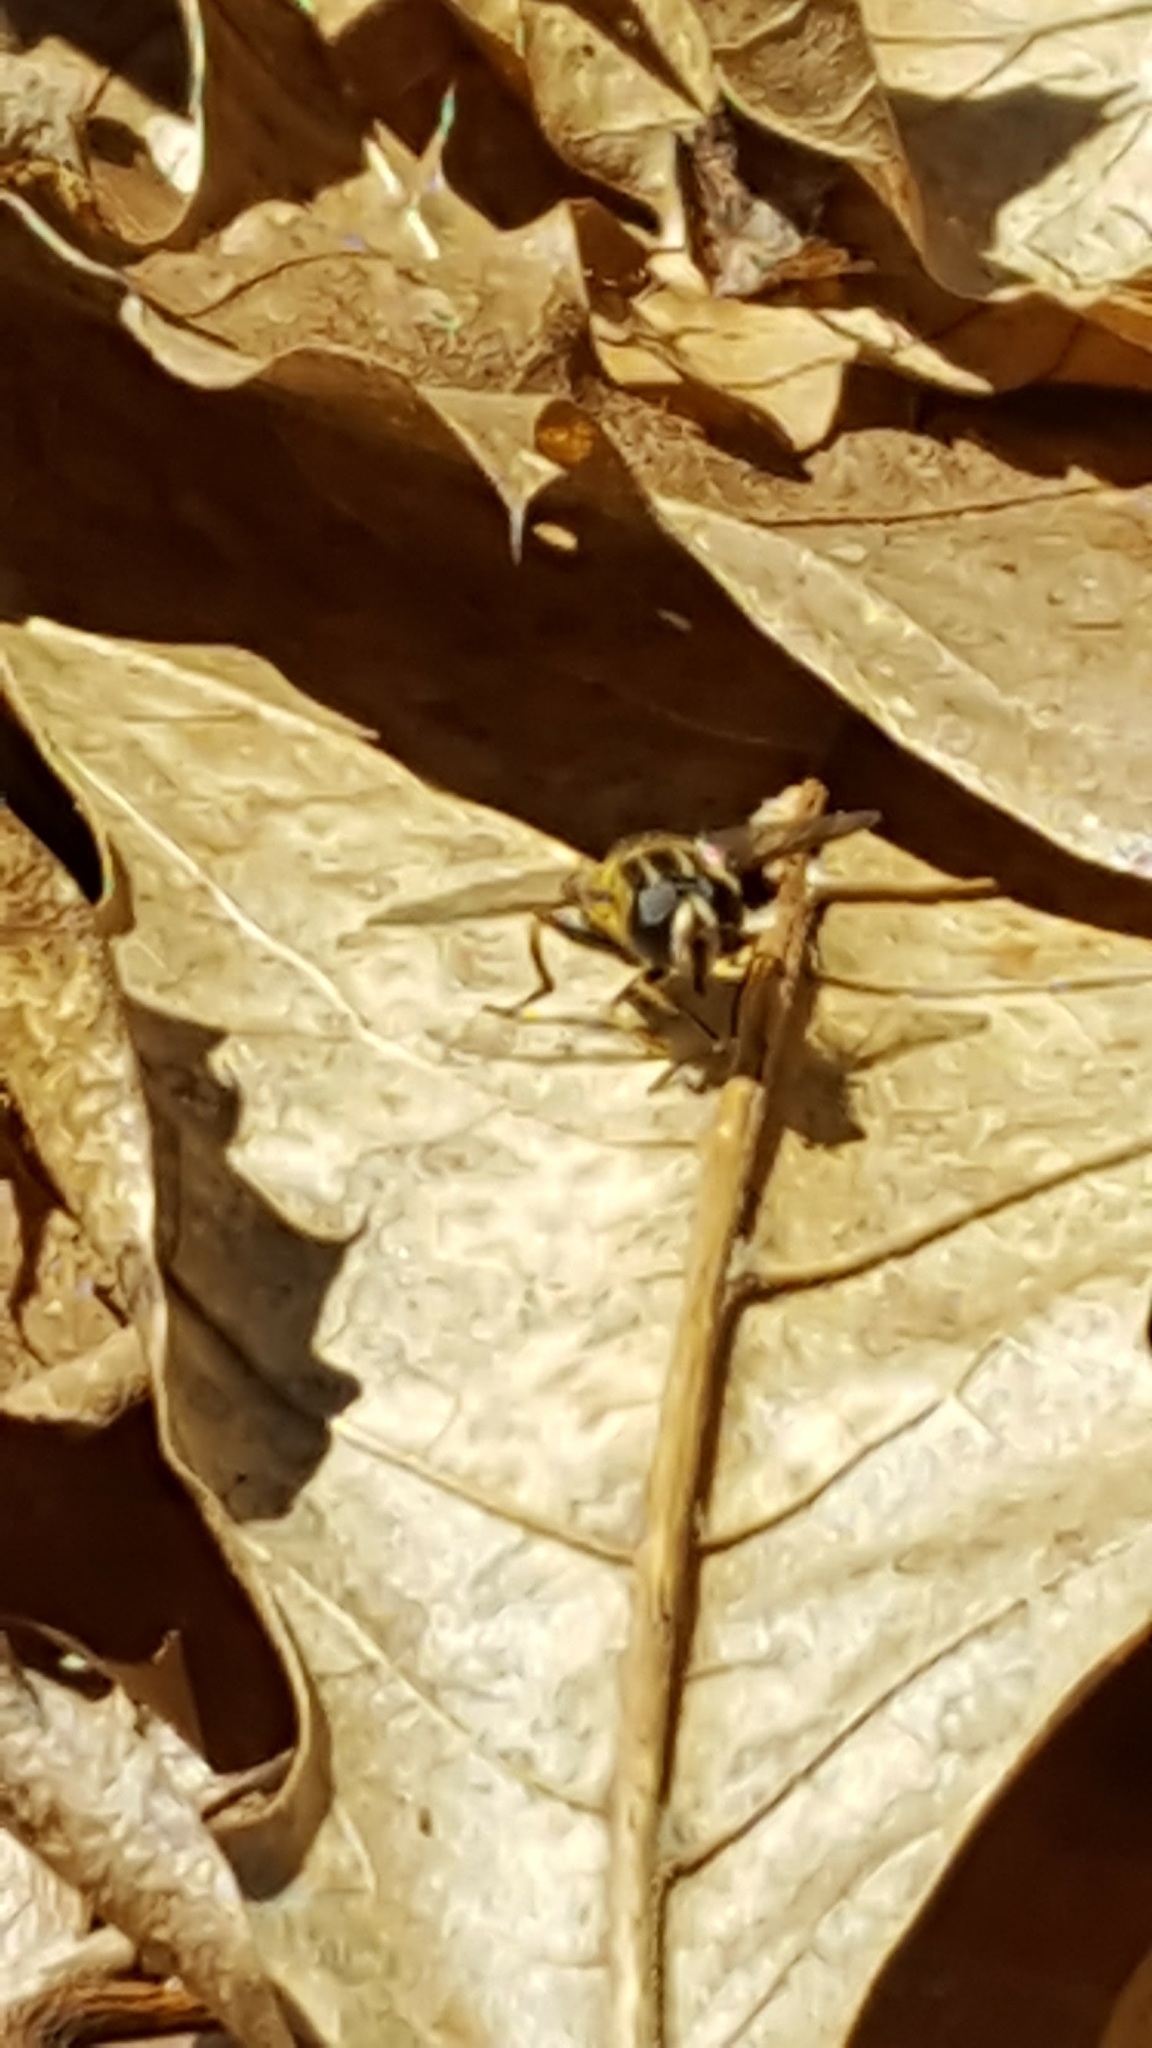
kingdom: Animalia
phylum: Arthropoda
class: Insecta
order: Diptera
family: Syrphidae
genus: Helophilus
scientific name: Helophilus
